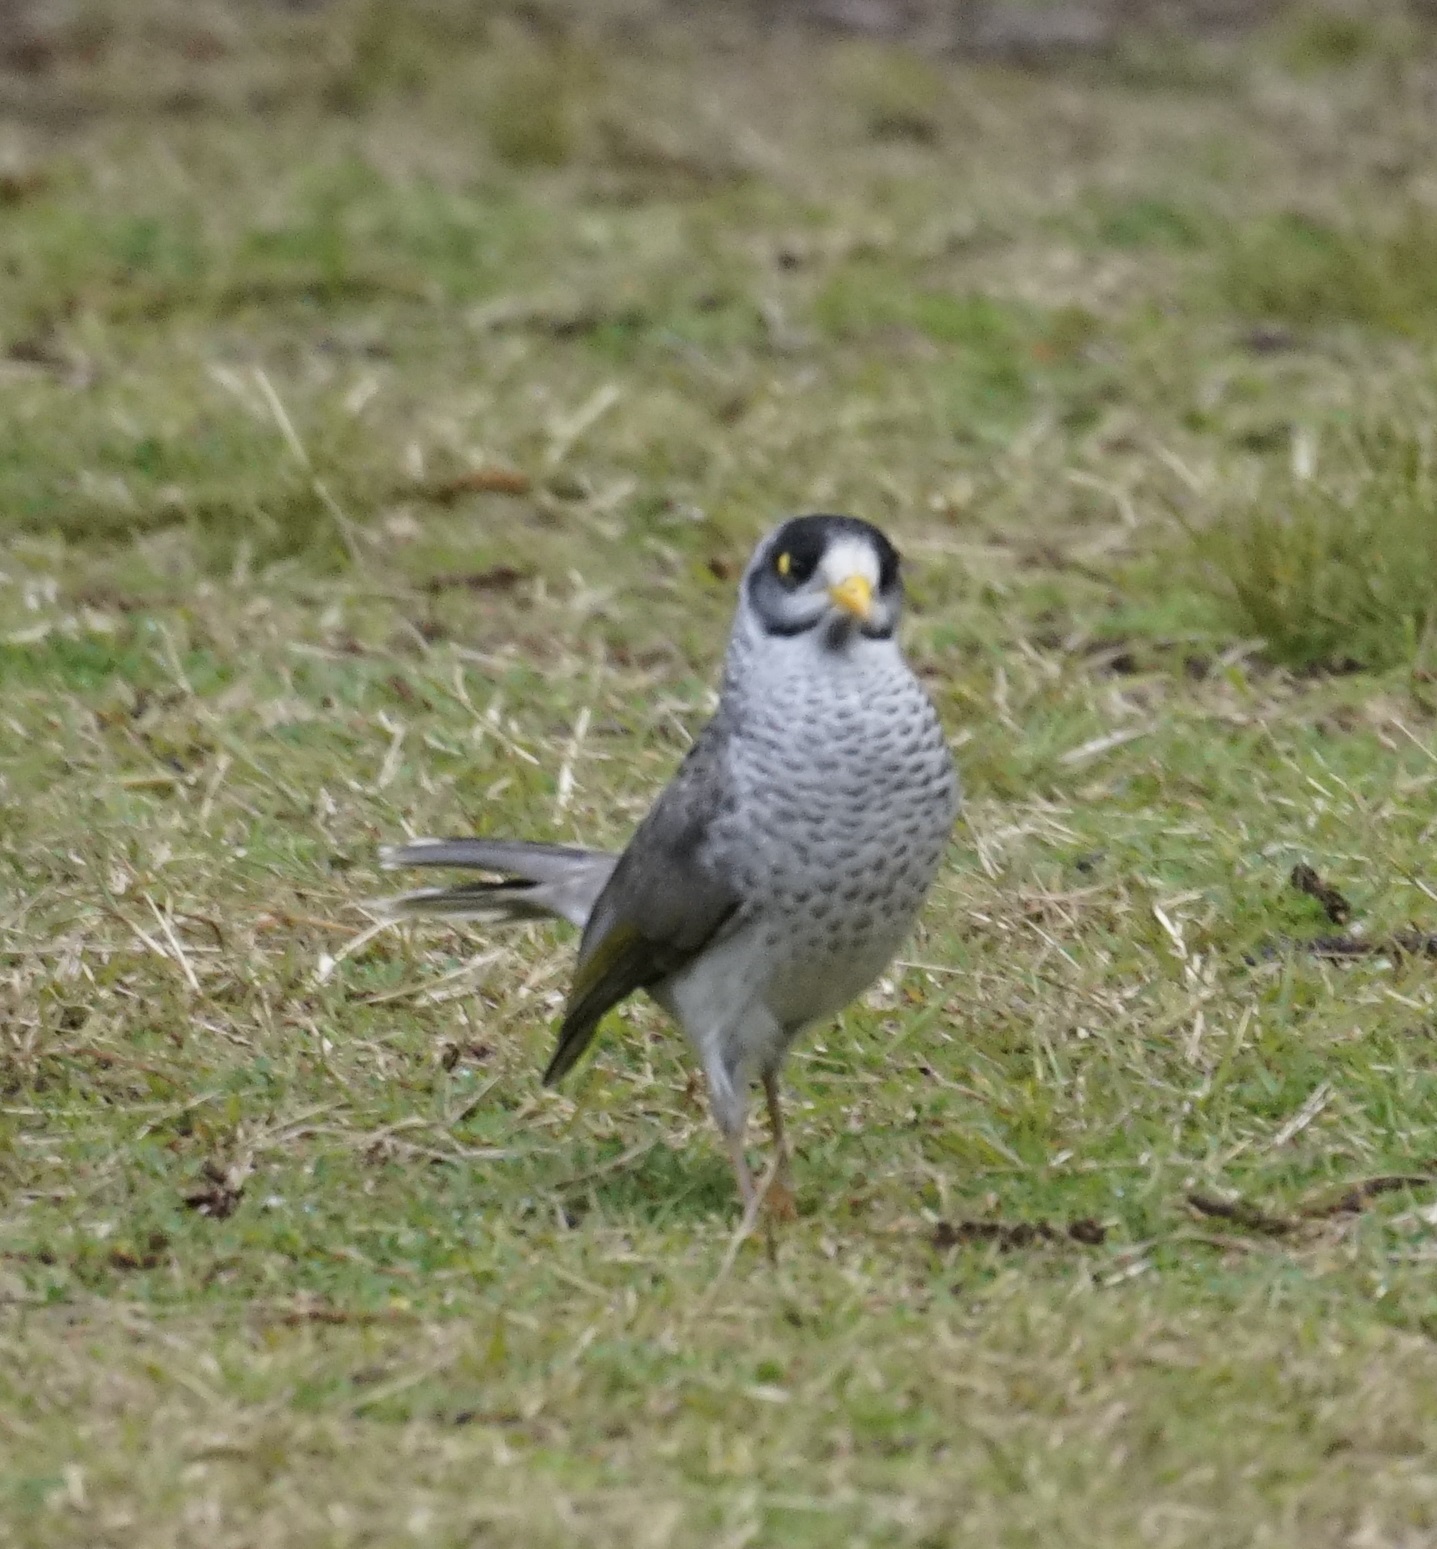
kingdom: Animalia
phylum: Chordata
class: Aves
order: Passeriformes
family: Meliphagidae
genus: Manorina
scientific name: Manorina melanocephala
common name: Noisy miner
